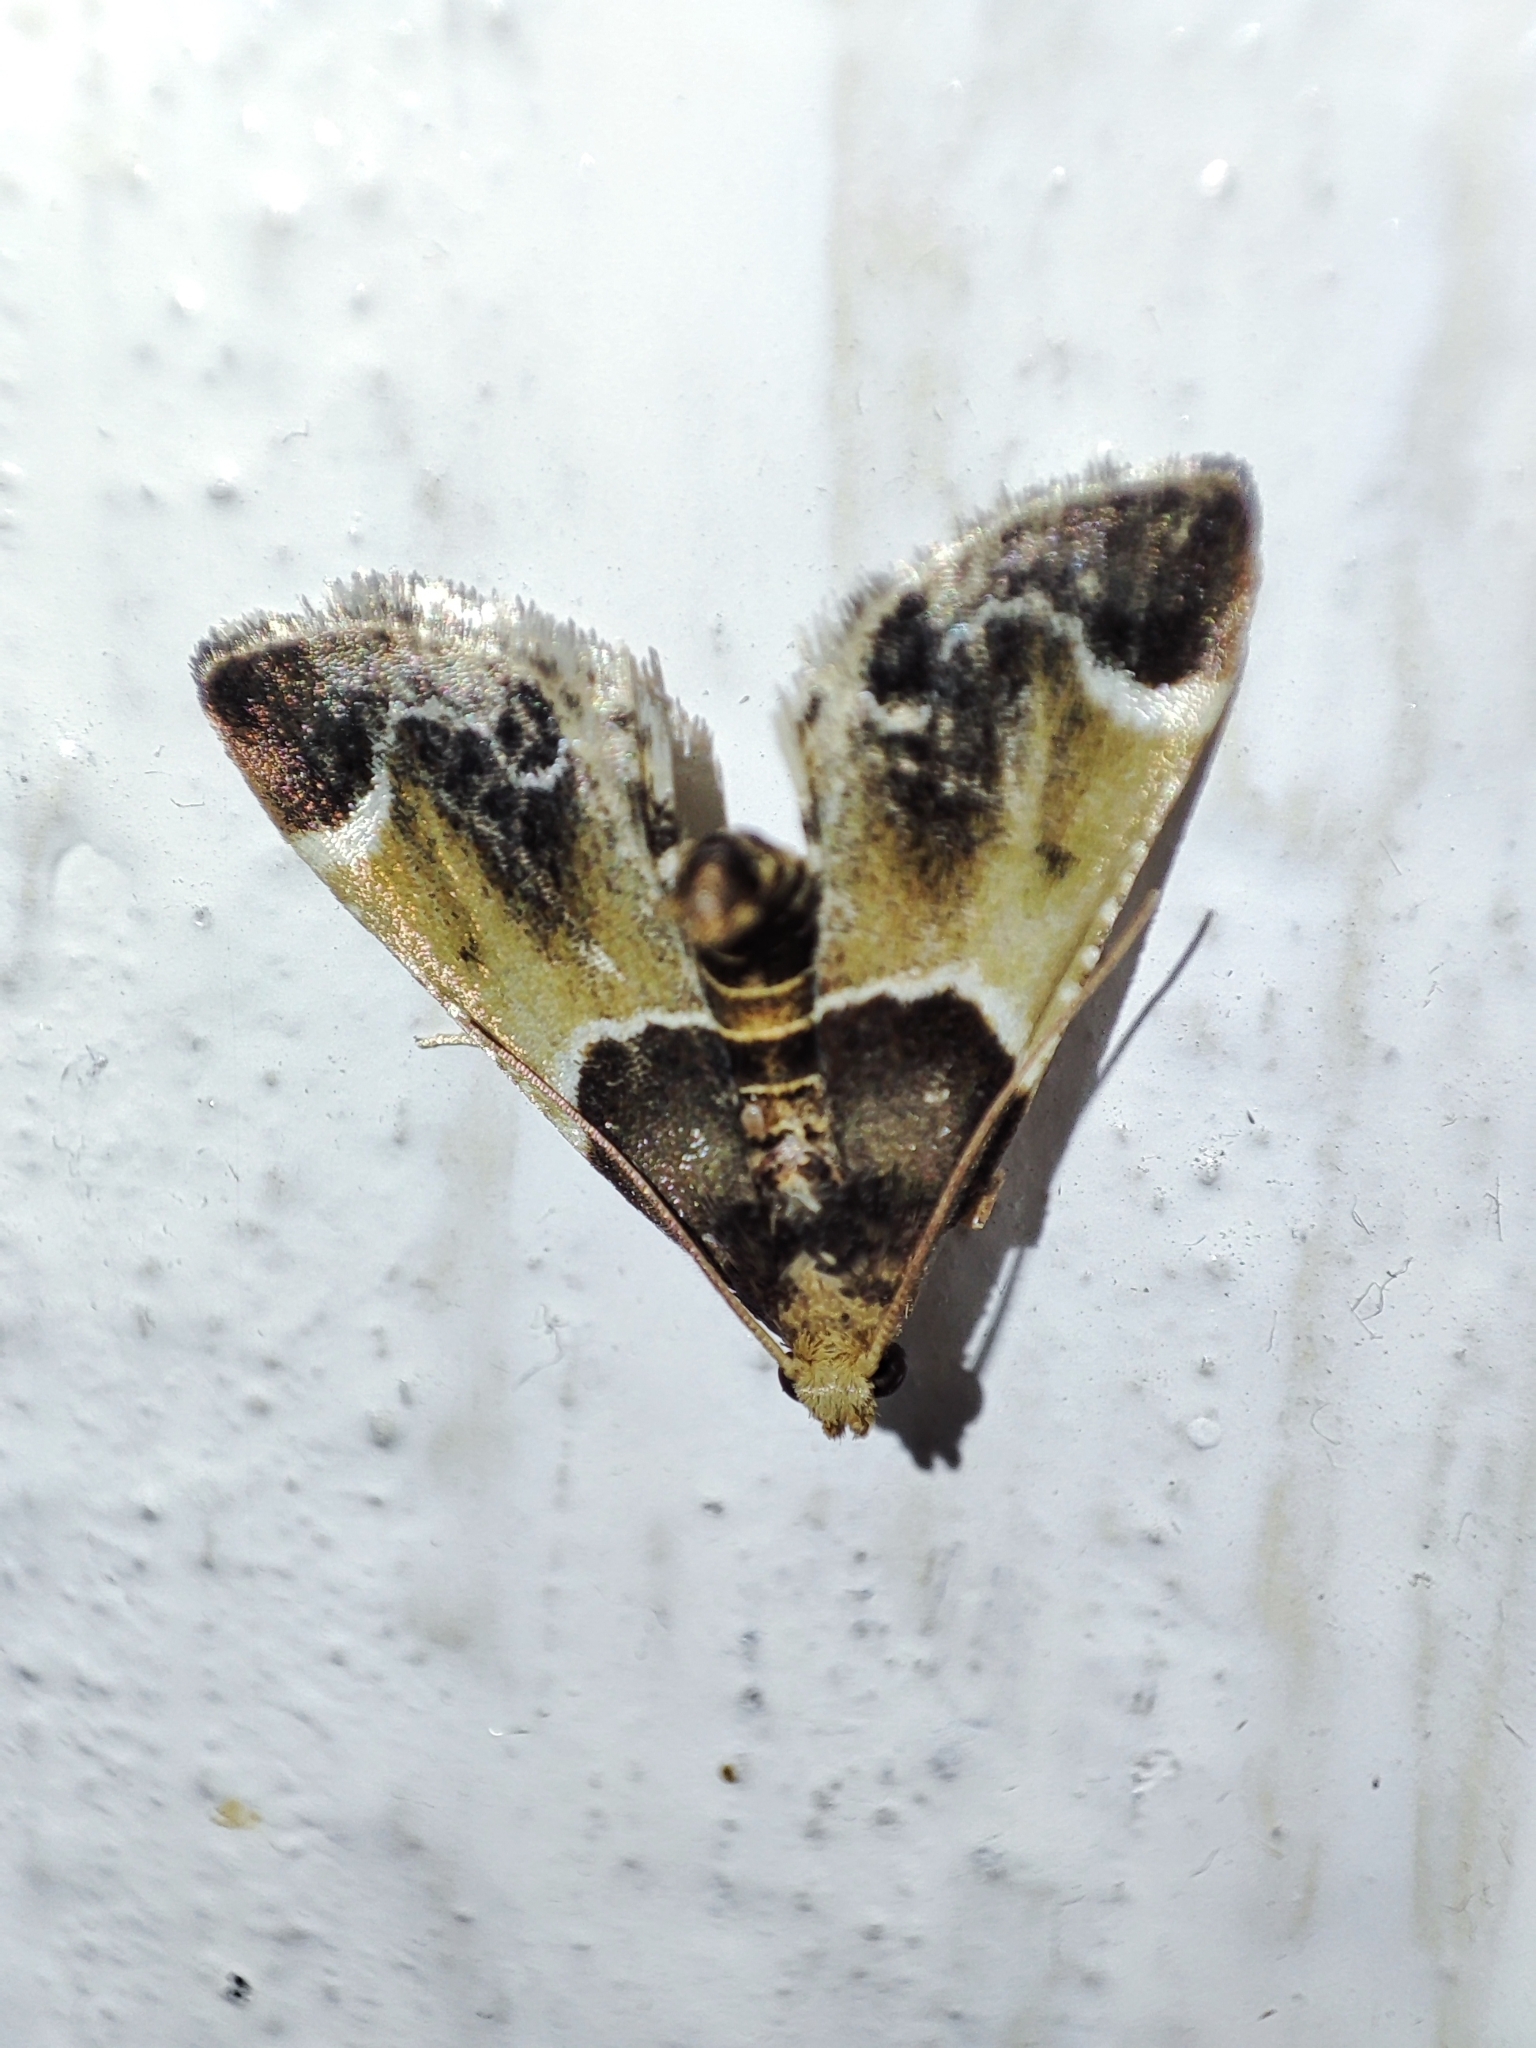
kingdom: Animalia
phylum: Arthropoda
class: Insecta
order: Lepidoptera
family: Pyralidae
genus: Pyralis
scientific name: Pyralis farinalis
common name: Meal moth
